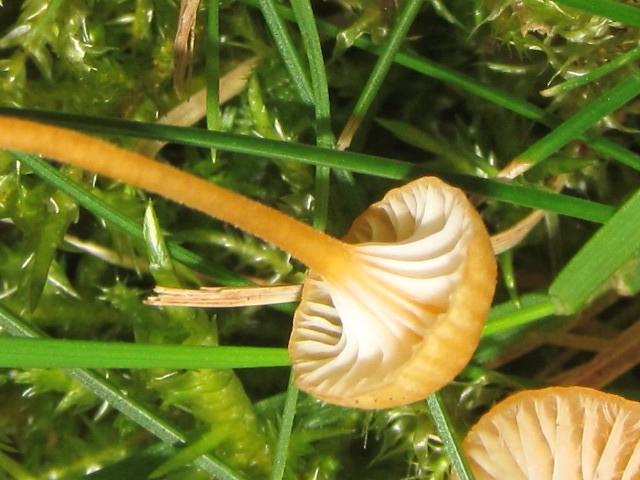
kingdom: Fungi
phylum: Basidiomycota
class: Agaricomycetes
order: Hymenochaetales
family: Rickenellaceae
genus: Rickenella
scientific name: Rickenella fibula
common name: Orange mosscap
